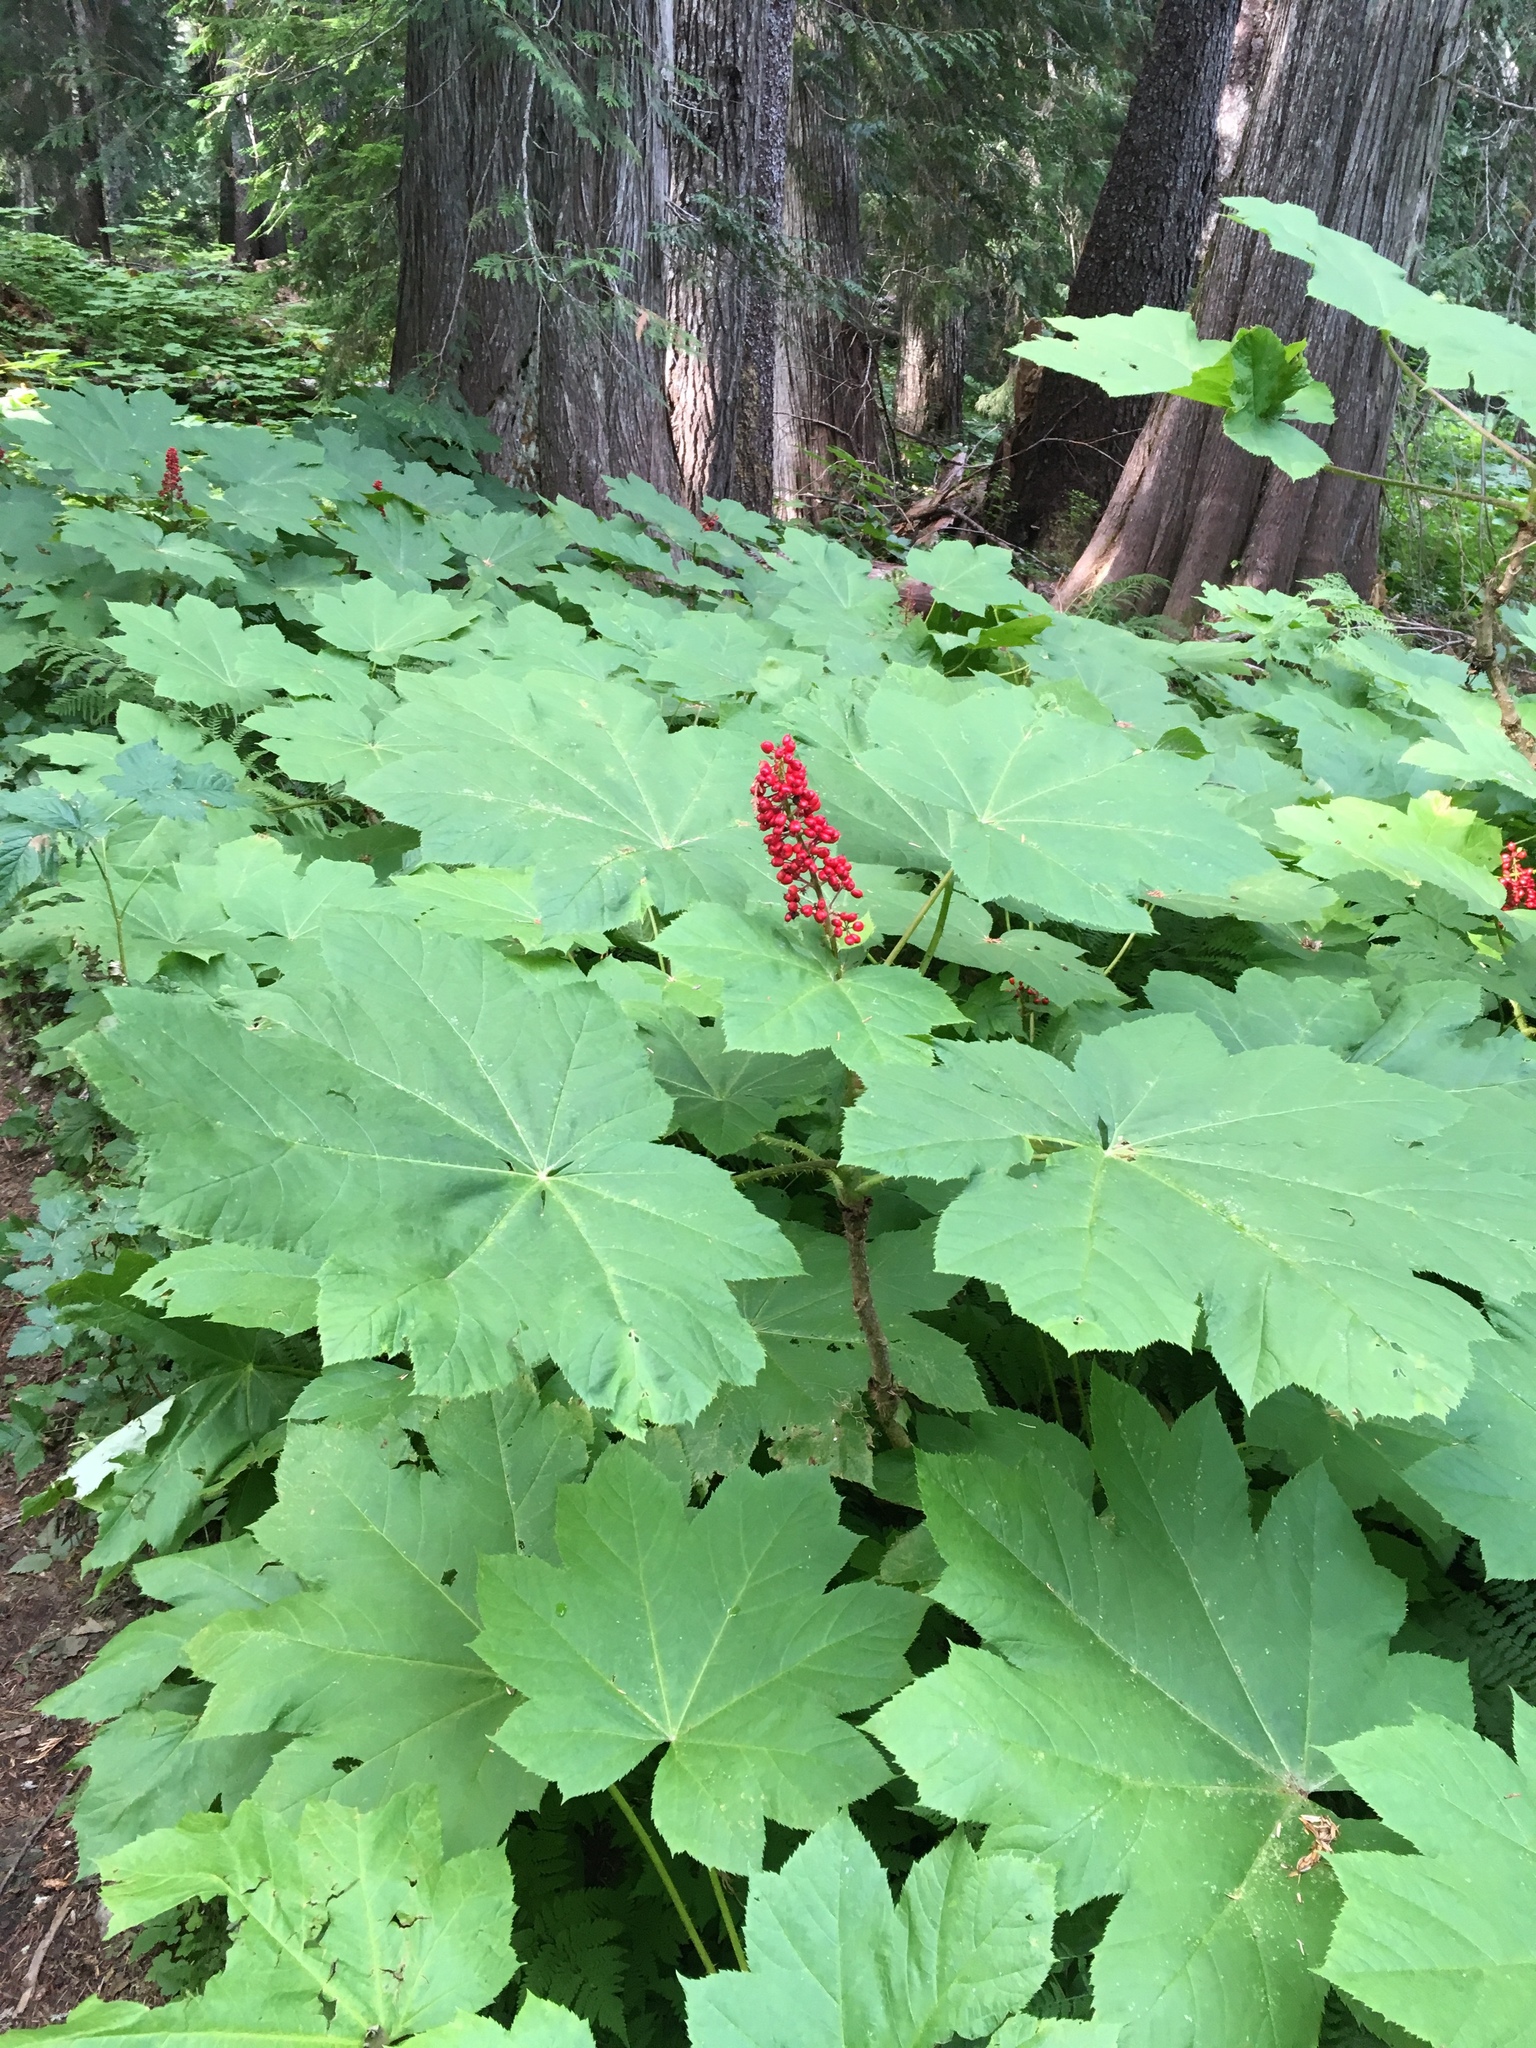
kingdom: Plantae
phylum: Tracheophyta
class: Magnoliopsida
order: Apiales
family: Araliaceae
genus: Oplopanax
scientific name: Oplopanax horridus
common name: Devil's walking-stick
